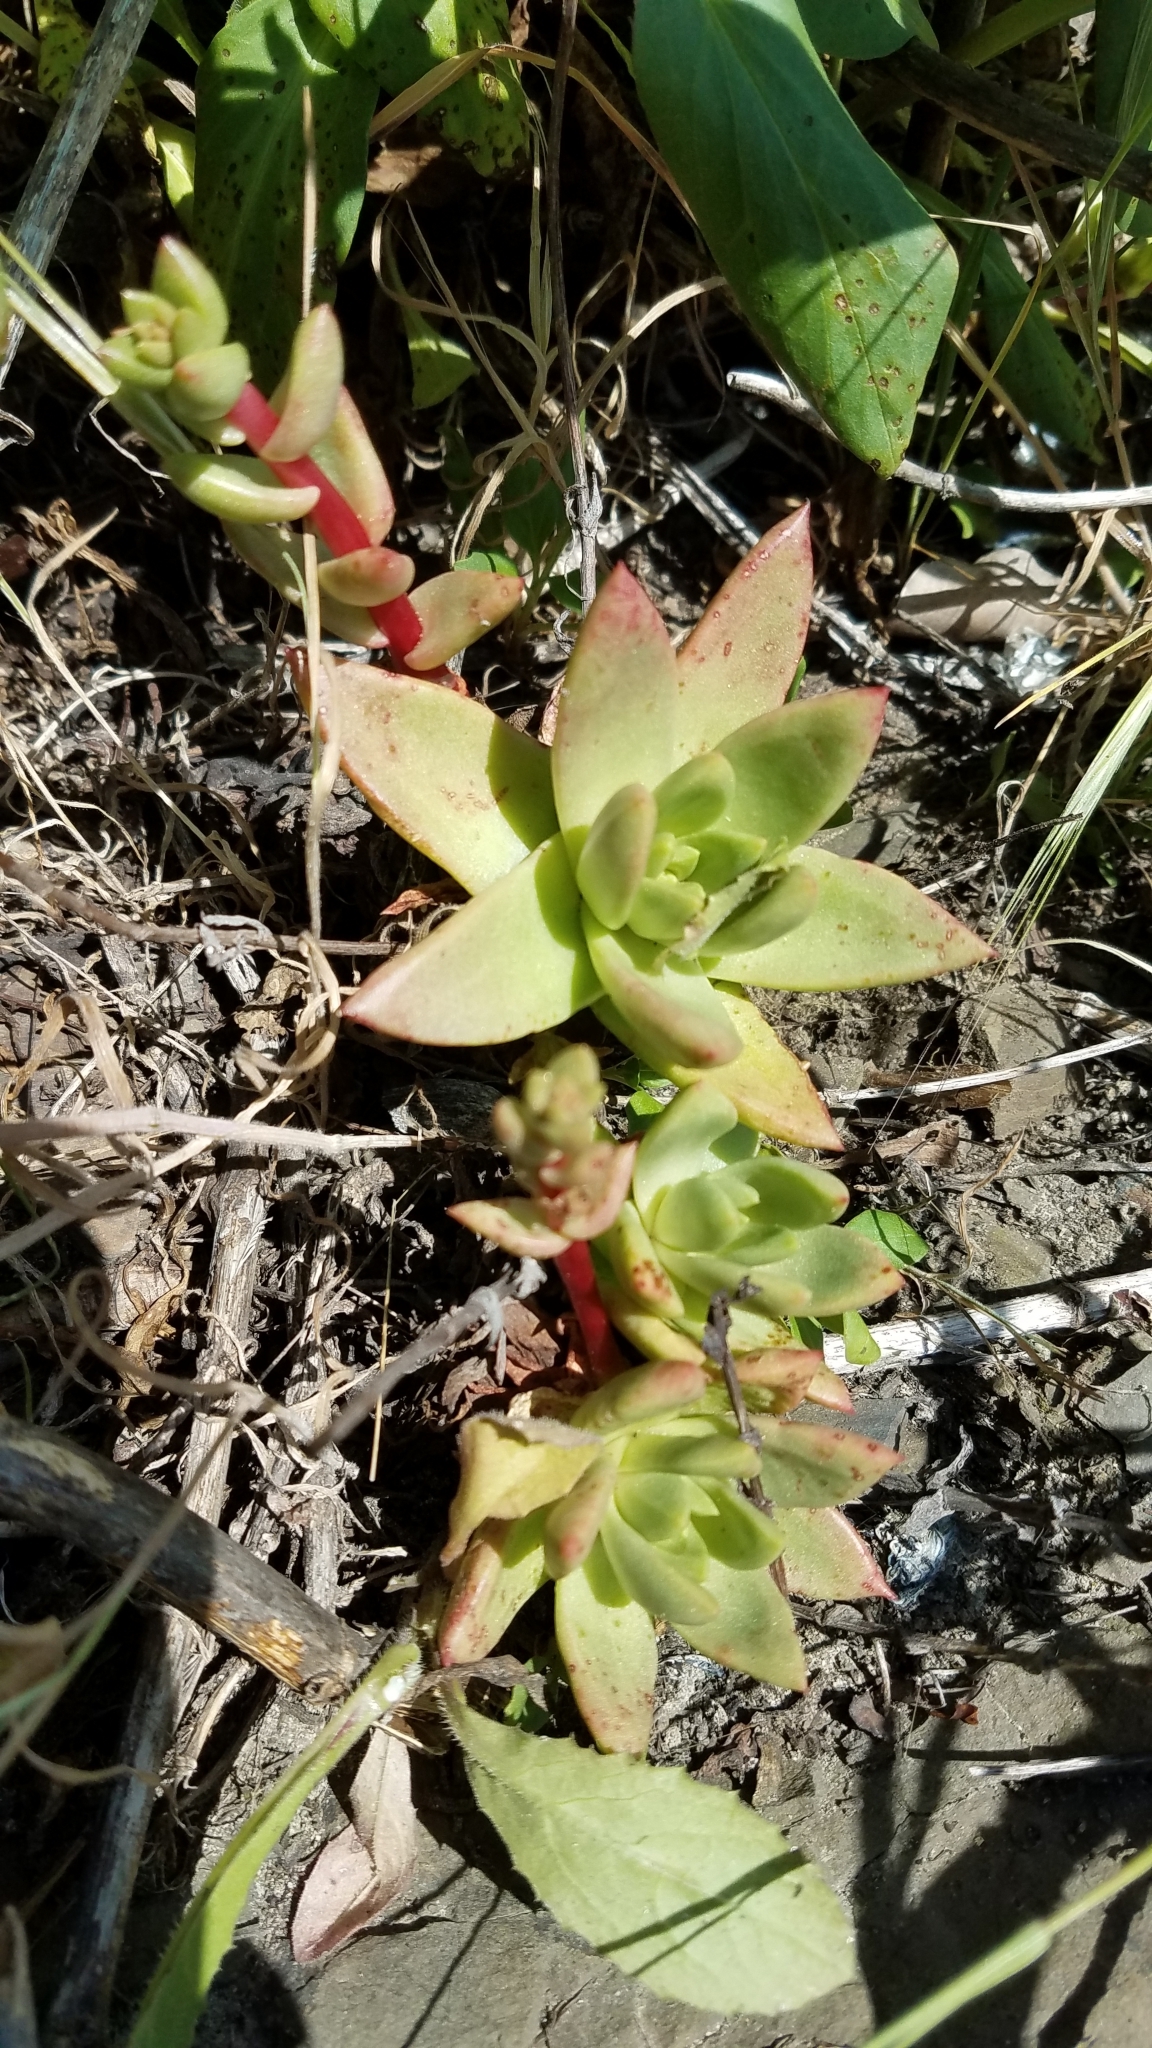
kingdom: Plantae
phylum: Tracheophyta
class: Magnoliopsida
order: Saxifragales
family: Crassulaceae
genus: Dudleya
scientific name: Dudleya farinosa
